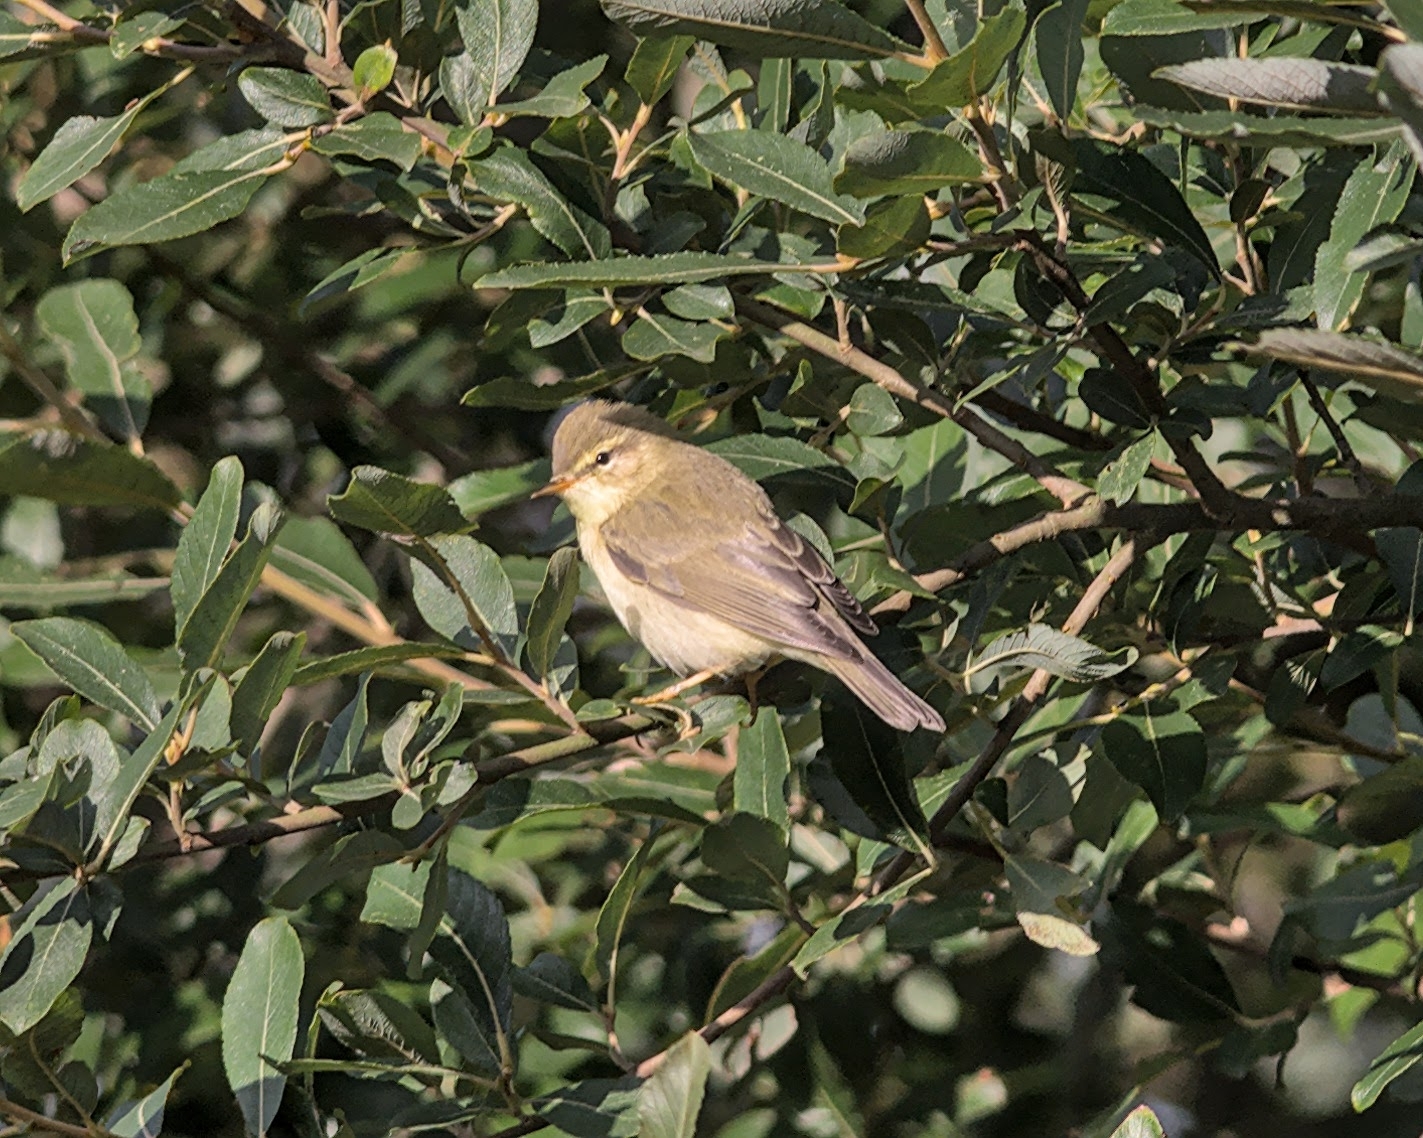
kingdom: Animalia
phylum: Chordata
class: Aves
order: Passeriformes
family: Phylloscopidae
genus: Phylloscopus
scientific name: Phylloscopus trochilus
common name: Willow warbler
